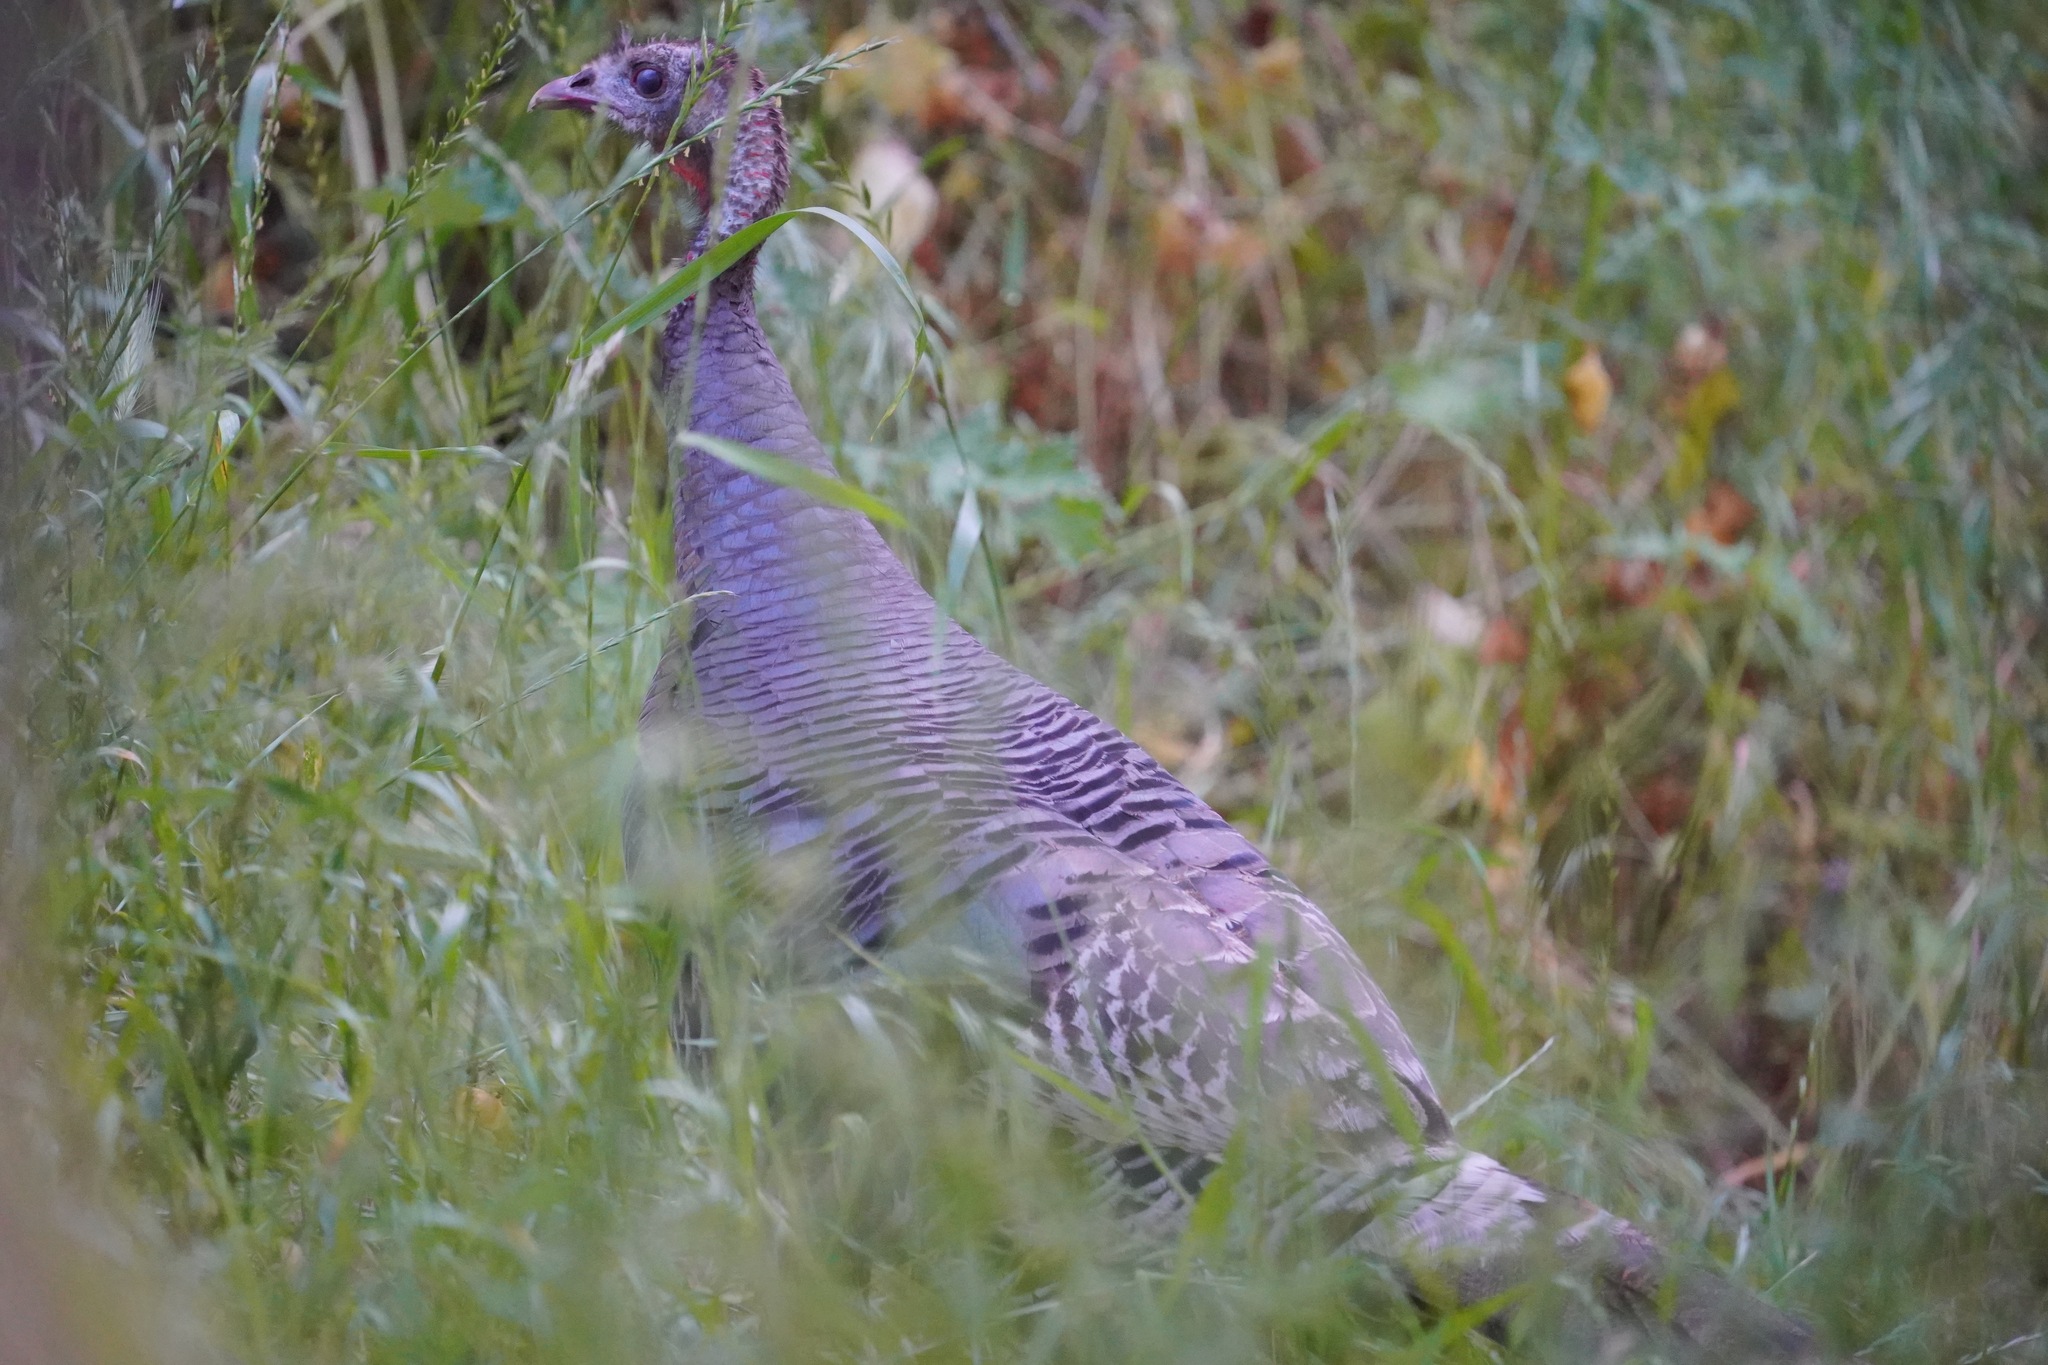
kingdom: Animalia
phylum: Chordata
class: Aves
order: Galliformes
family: Phasianidae
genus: Meleagris
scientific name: Meleagris gallopavo
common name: Wild turkey
